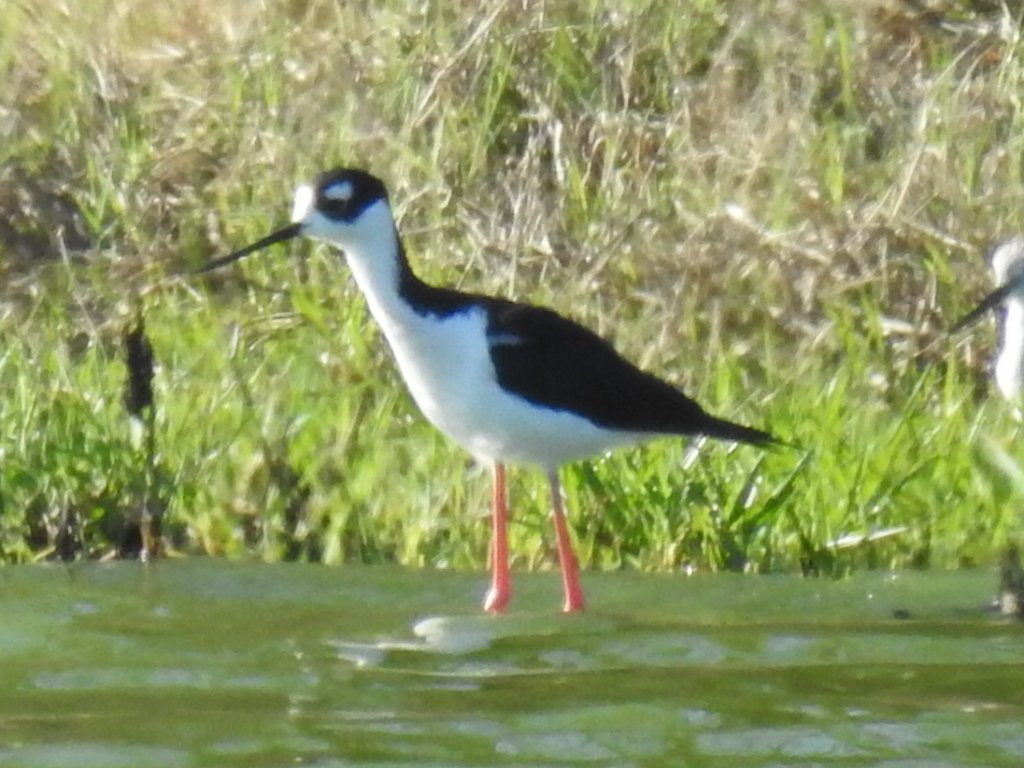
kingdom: Animalia
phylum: Chordata
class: Aves
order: Charadriiformes
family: Recurvirostridae
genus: Himantopus
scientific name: Himantopus mexicanus
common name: Black-necked stilt
